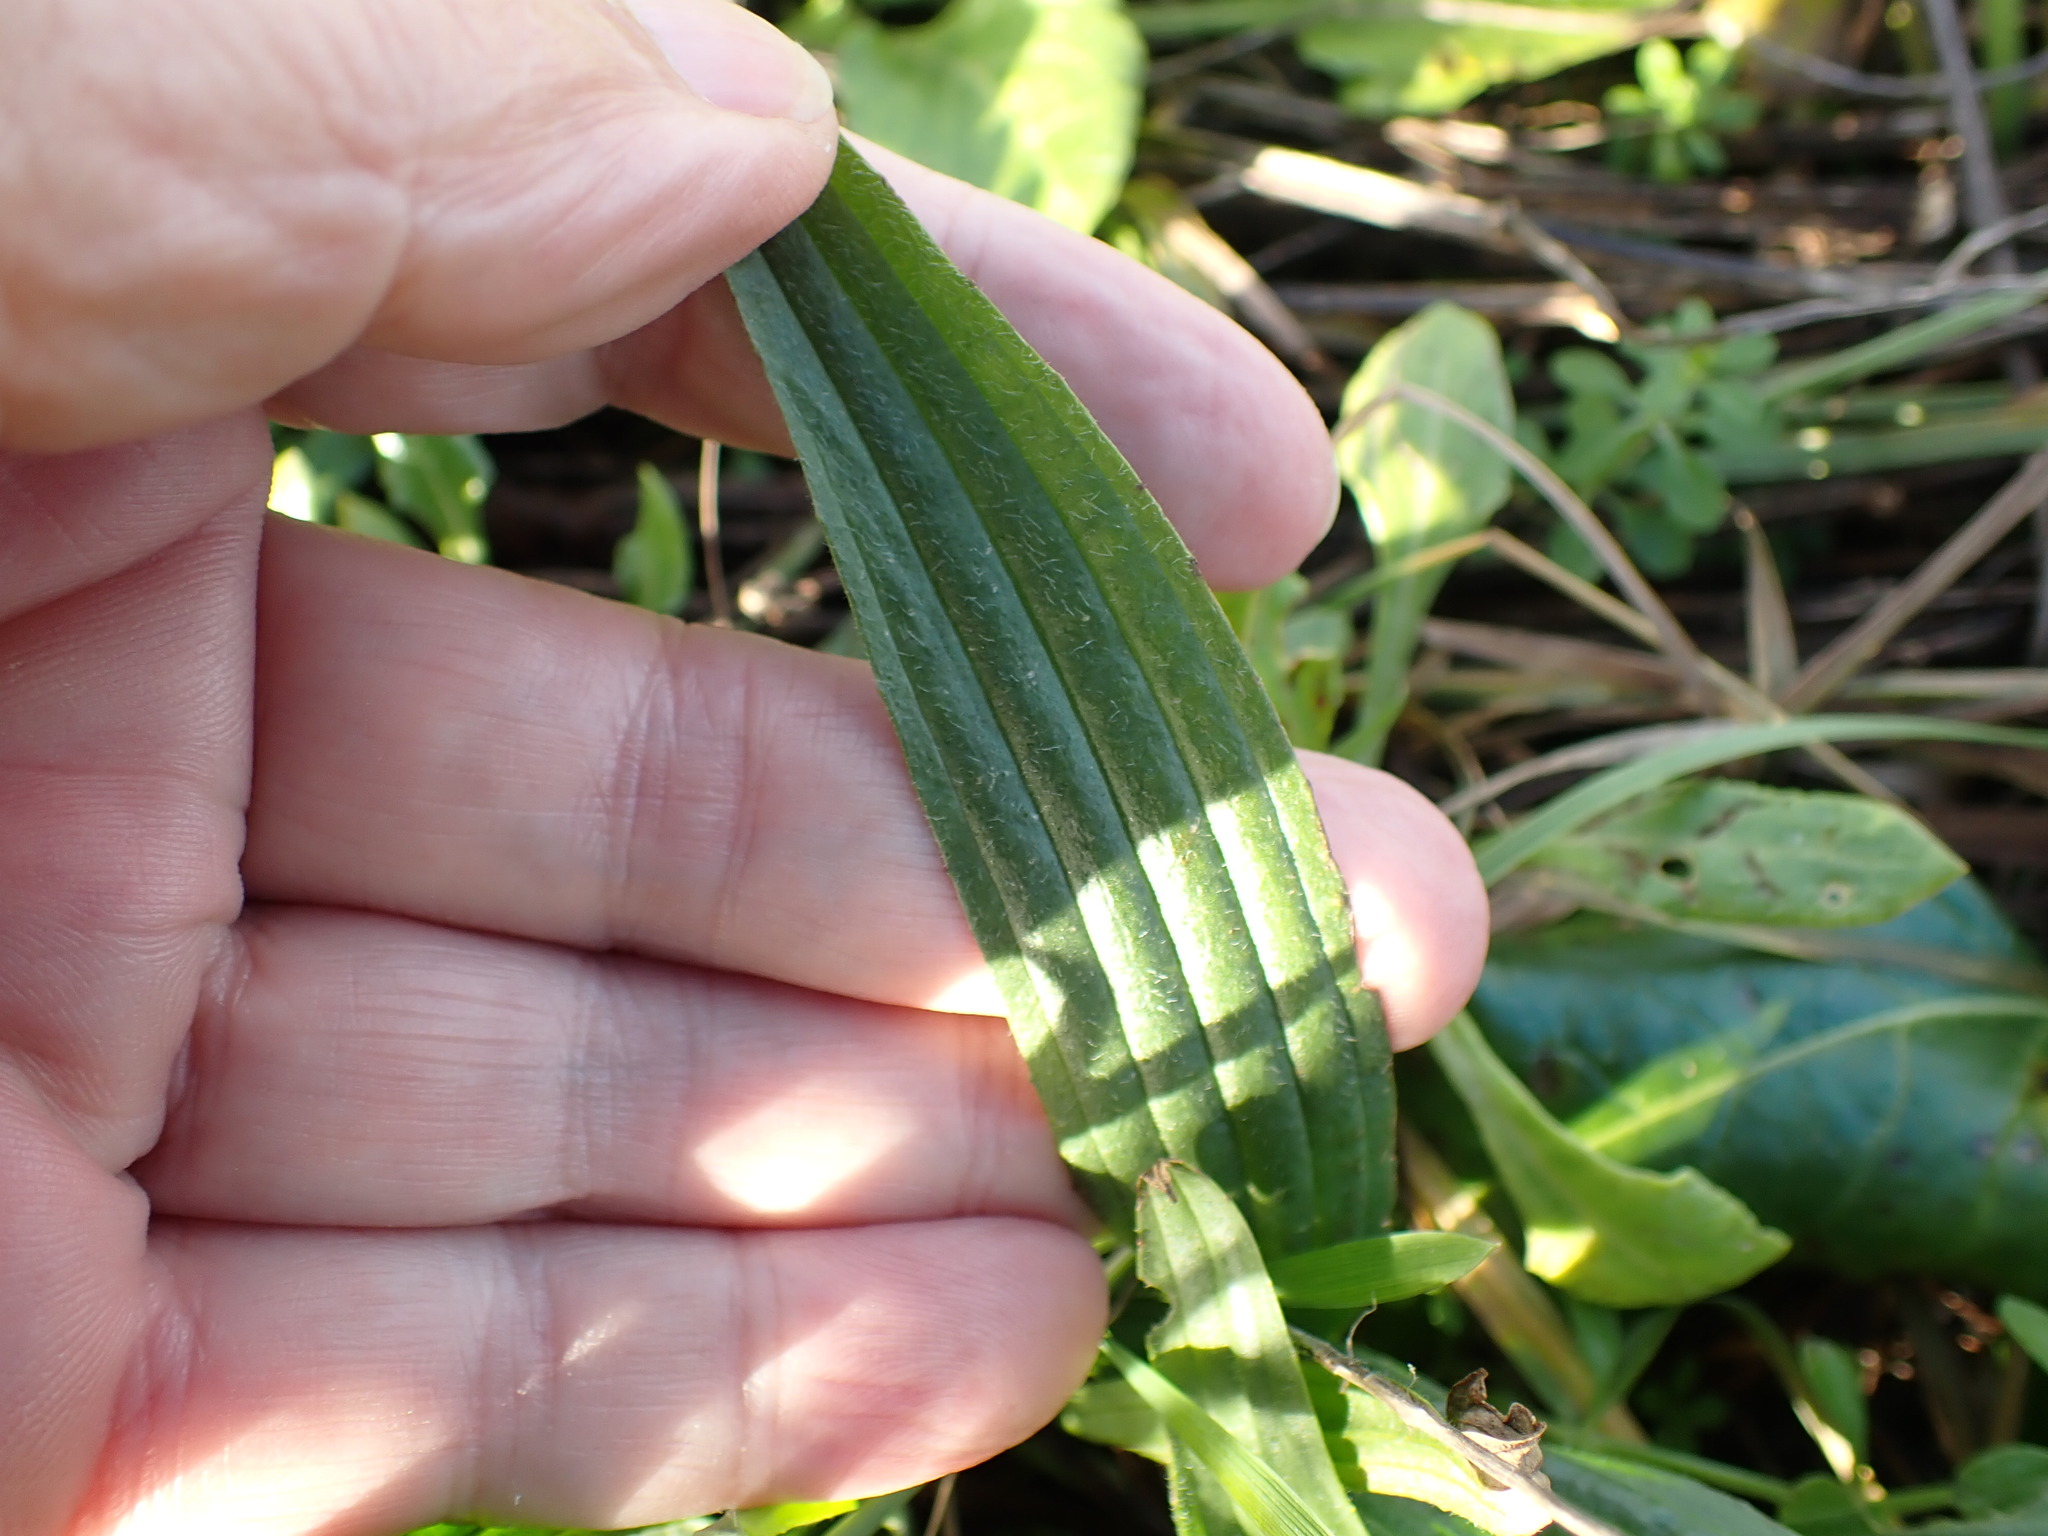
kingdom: Plantae
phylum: Tracheophyta
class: Magnoliopsida
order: Lamiales
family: Plantaginaceae
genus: Plantago
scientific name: Plantago lanceolata
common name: Ribwort plantain
